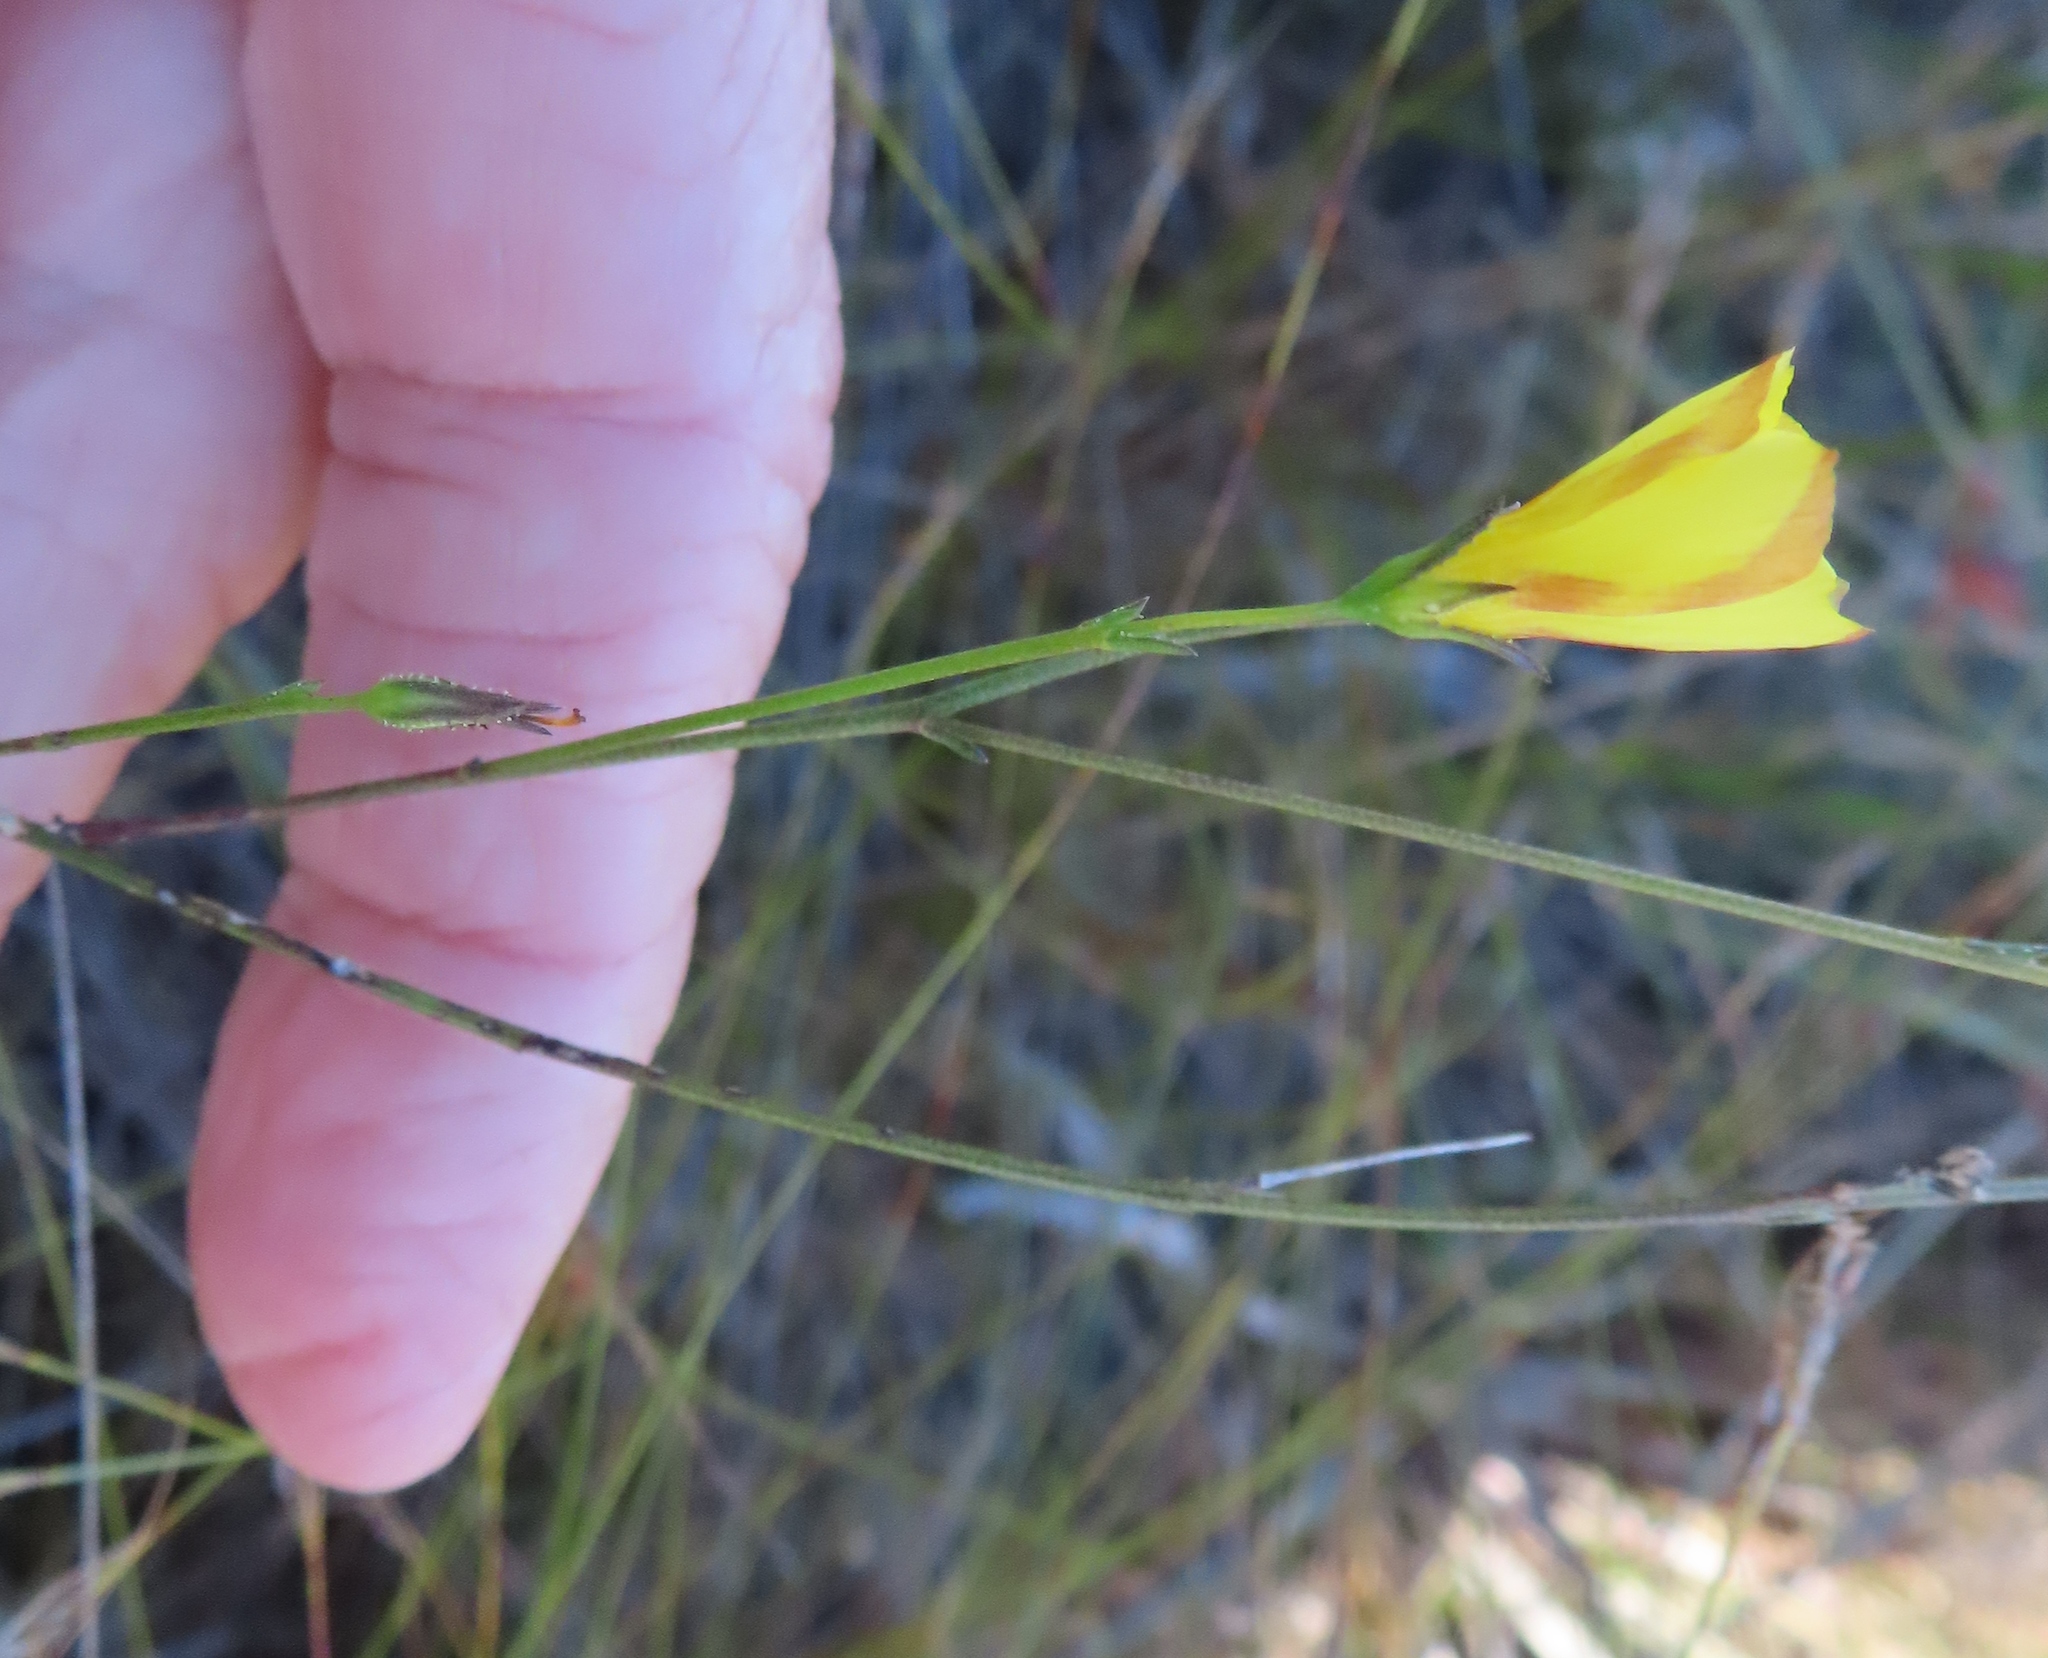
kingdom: Plantae
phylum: Tracheophyta
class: Magnoliopsida
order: Malpighiales
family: Linaceae
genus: Linum
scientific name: Linum africanum
